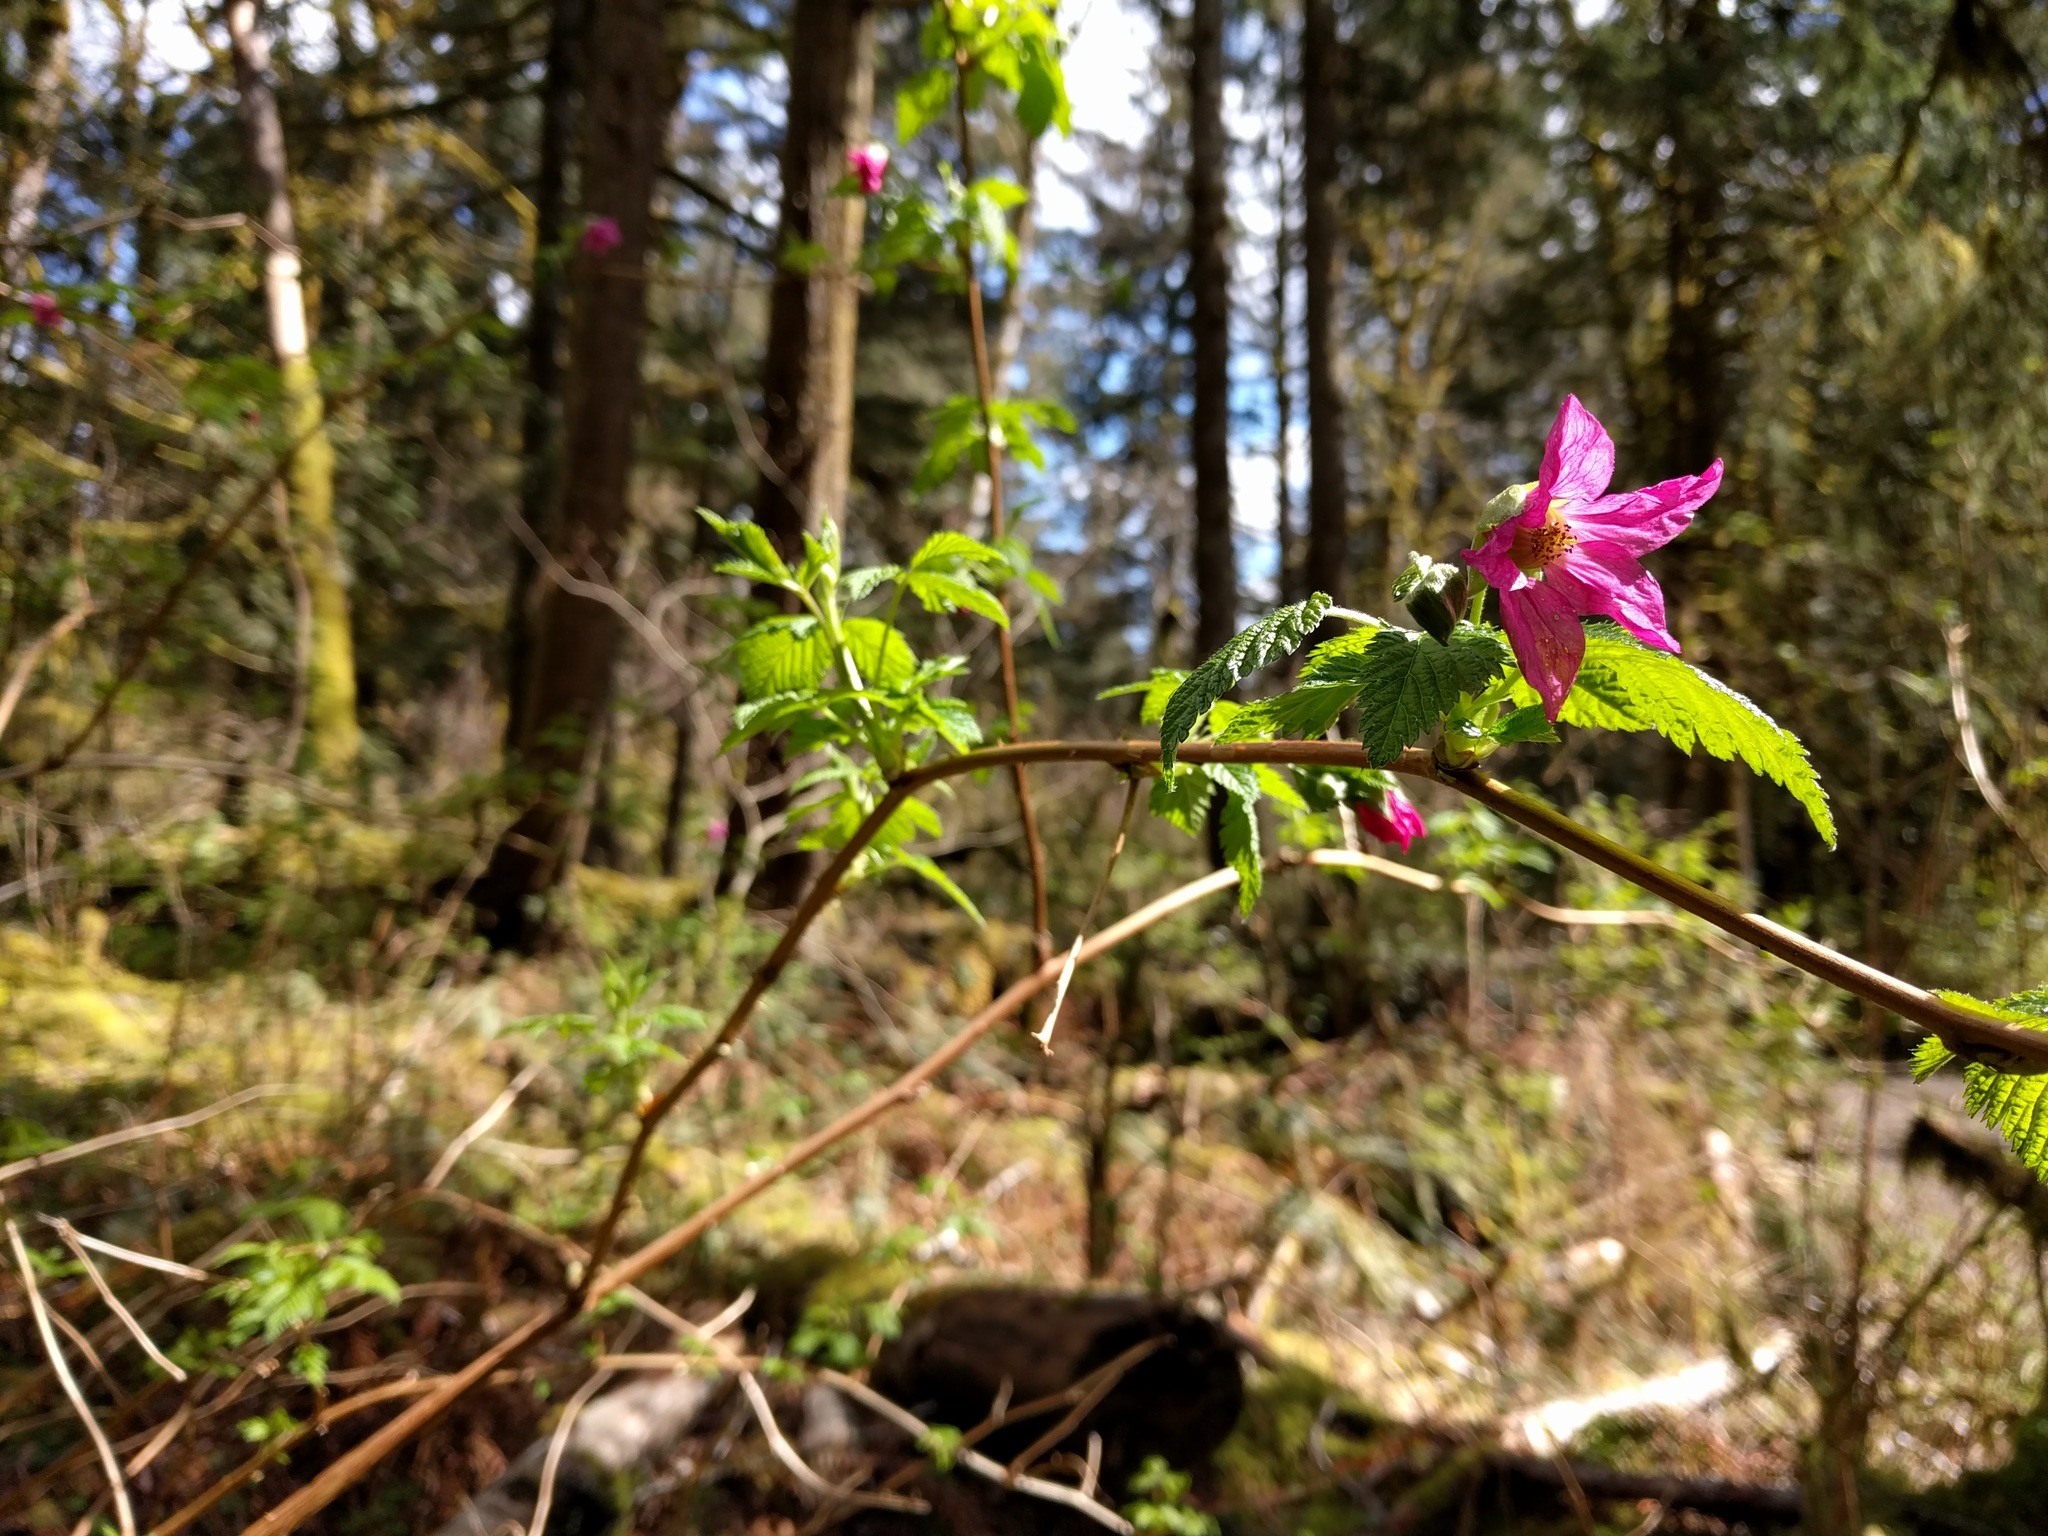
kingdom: Plantae
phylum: Tracheophyta
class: Magnoliopsida
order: Rosales
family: Rosaceae
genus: Rubus
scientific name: Rubus spectabilis
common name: Salmonberry
